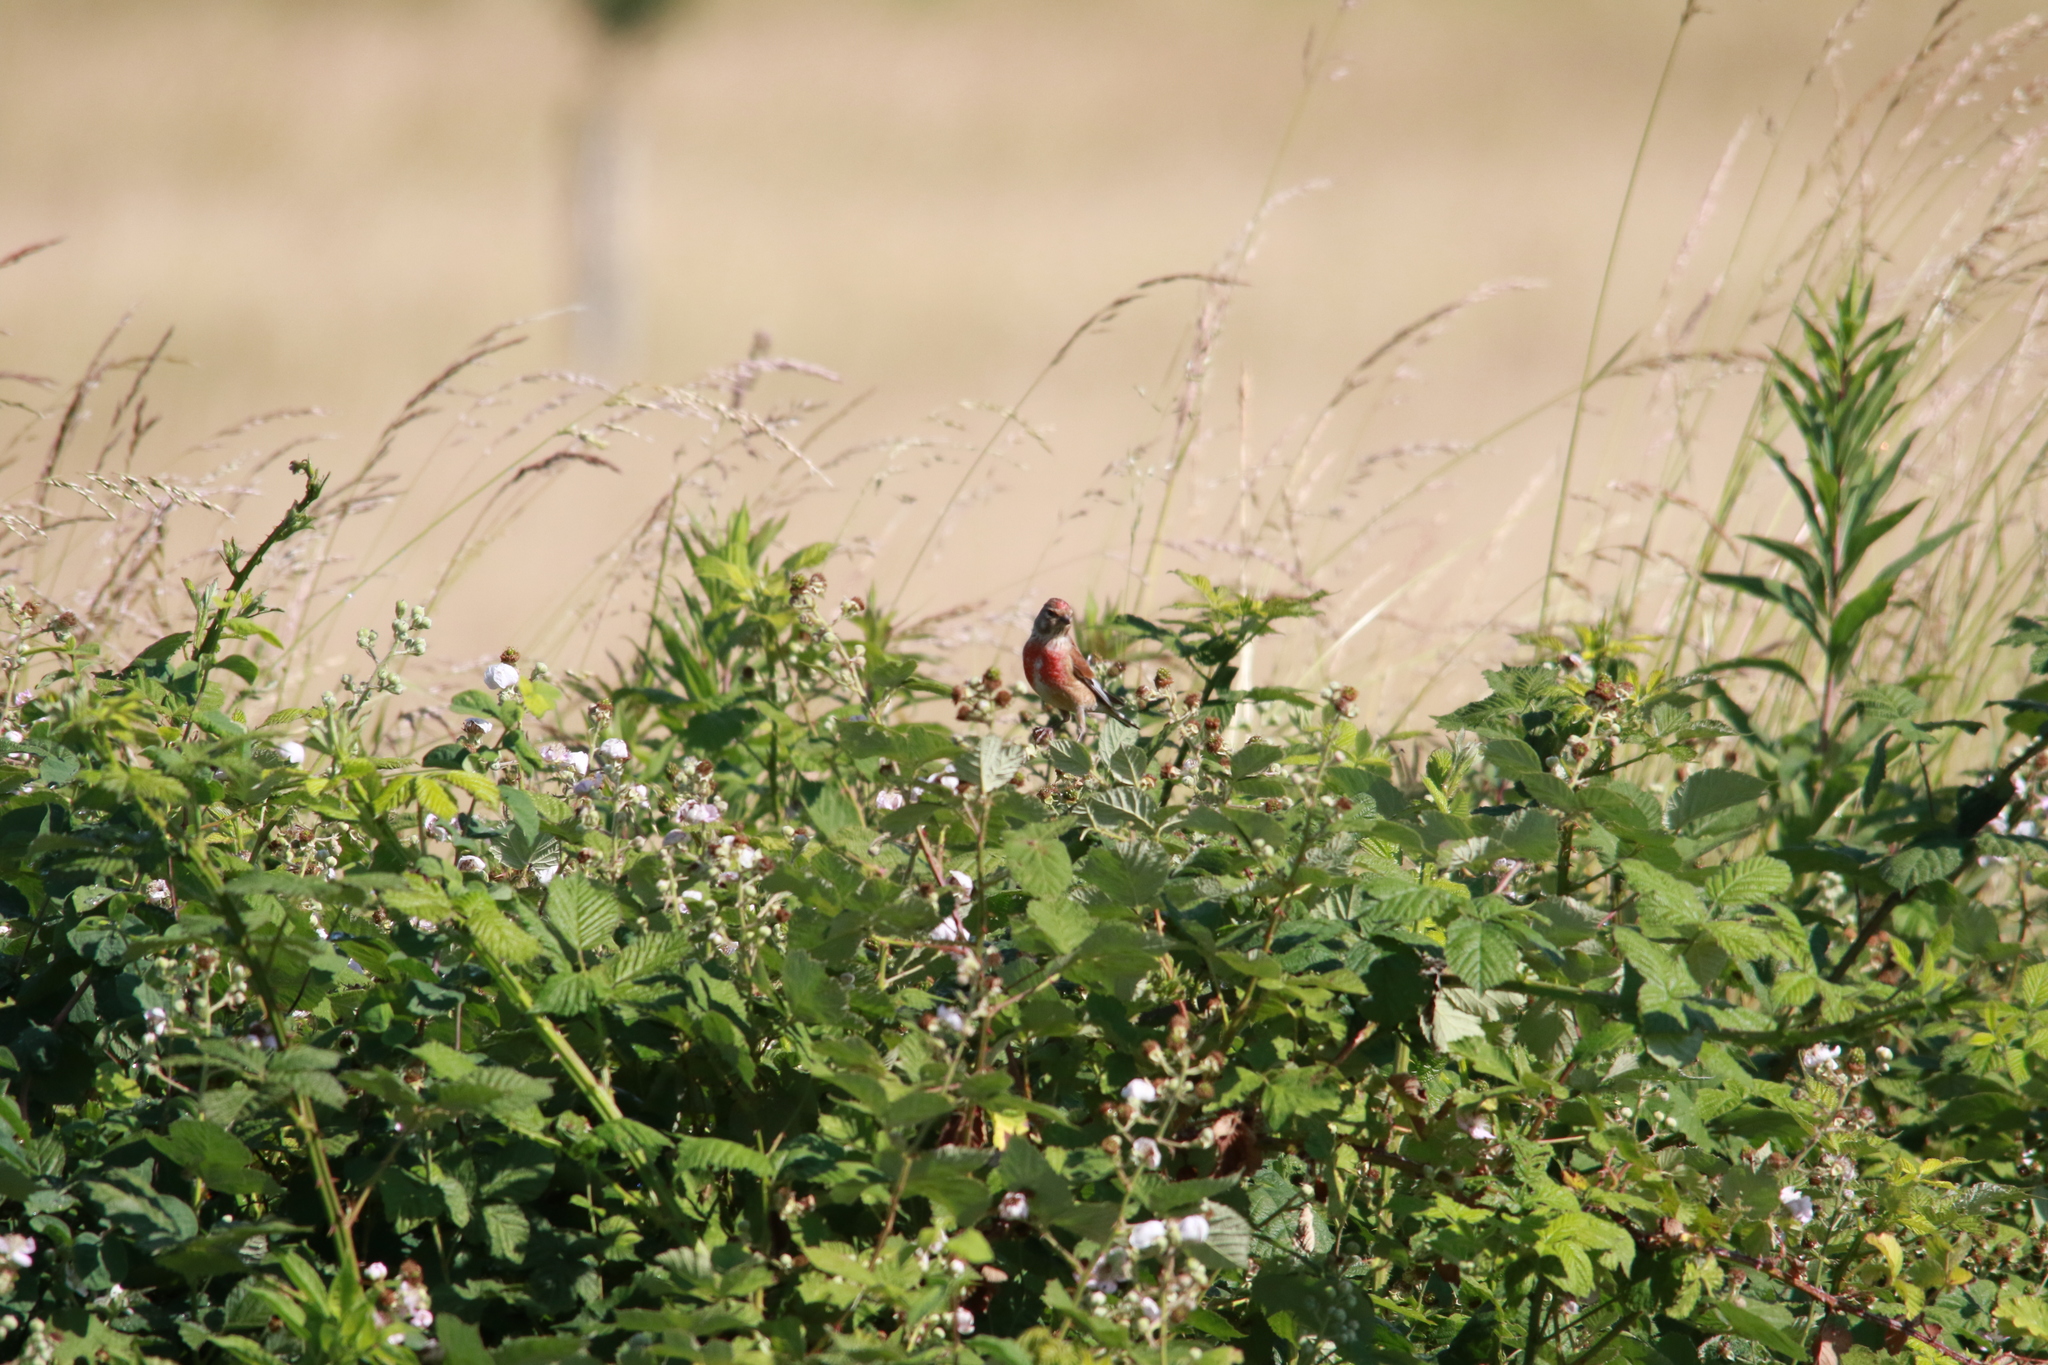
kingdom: Animalia
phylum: Chordata
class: Aves
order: Passeriformes
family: Fringillidae
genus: Linaria
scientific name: Linaria cannabina
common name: Common linnet
